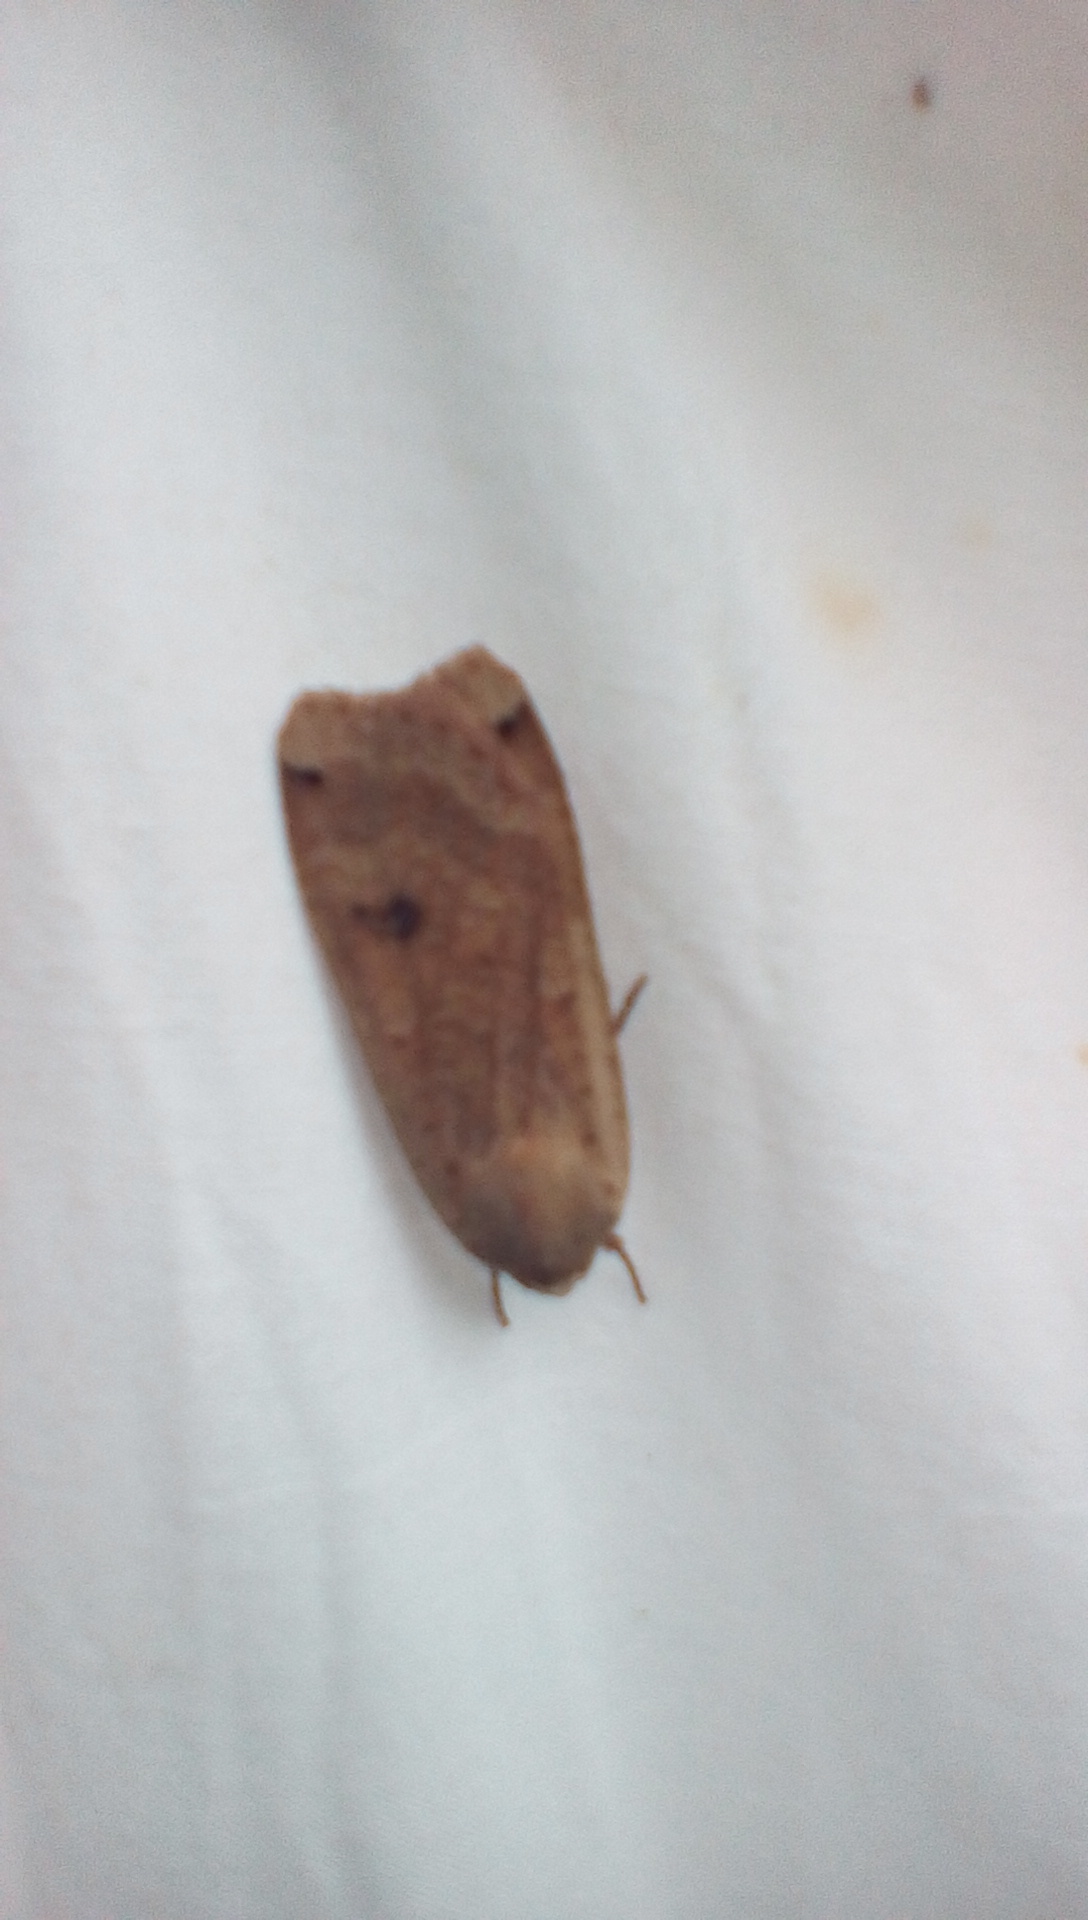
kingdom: Animalia
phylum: Arthropoda
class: Insecta
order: Lepidoptera
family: Noctuidae
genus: Noctua
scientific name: Noctua pronuba
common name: Large yellow underwing
